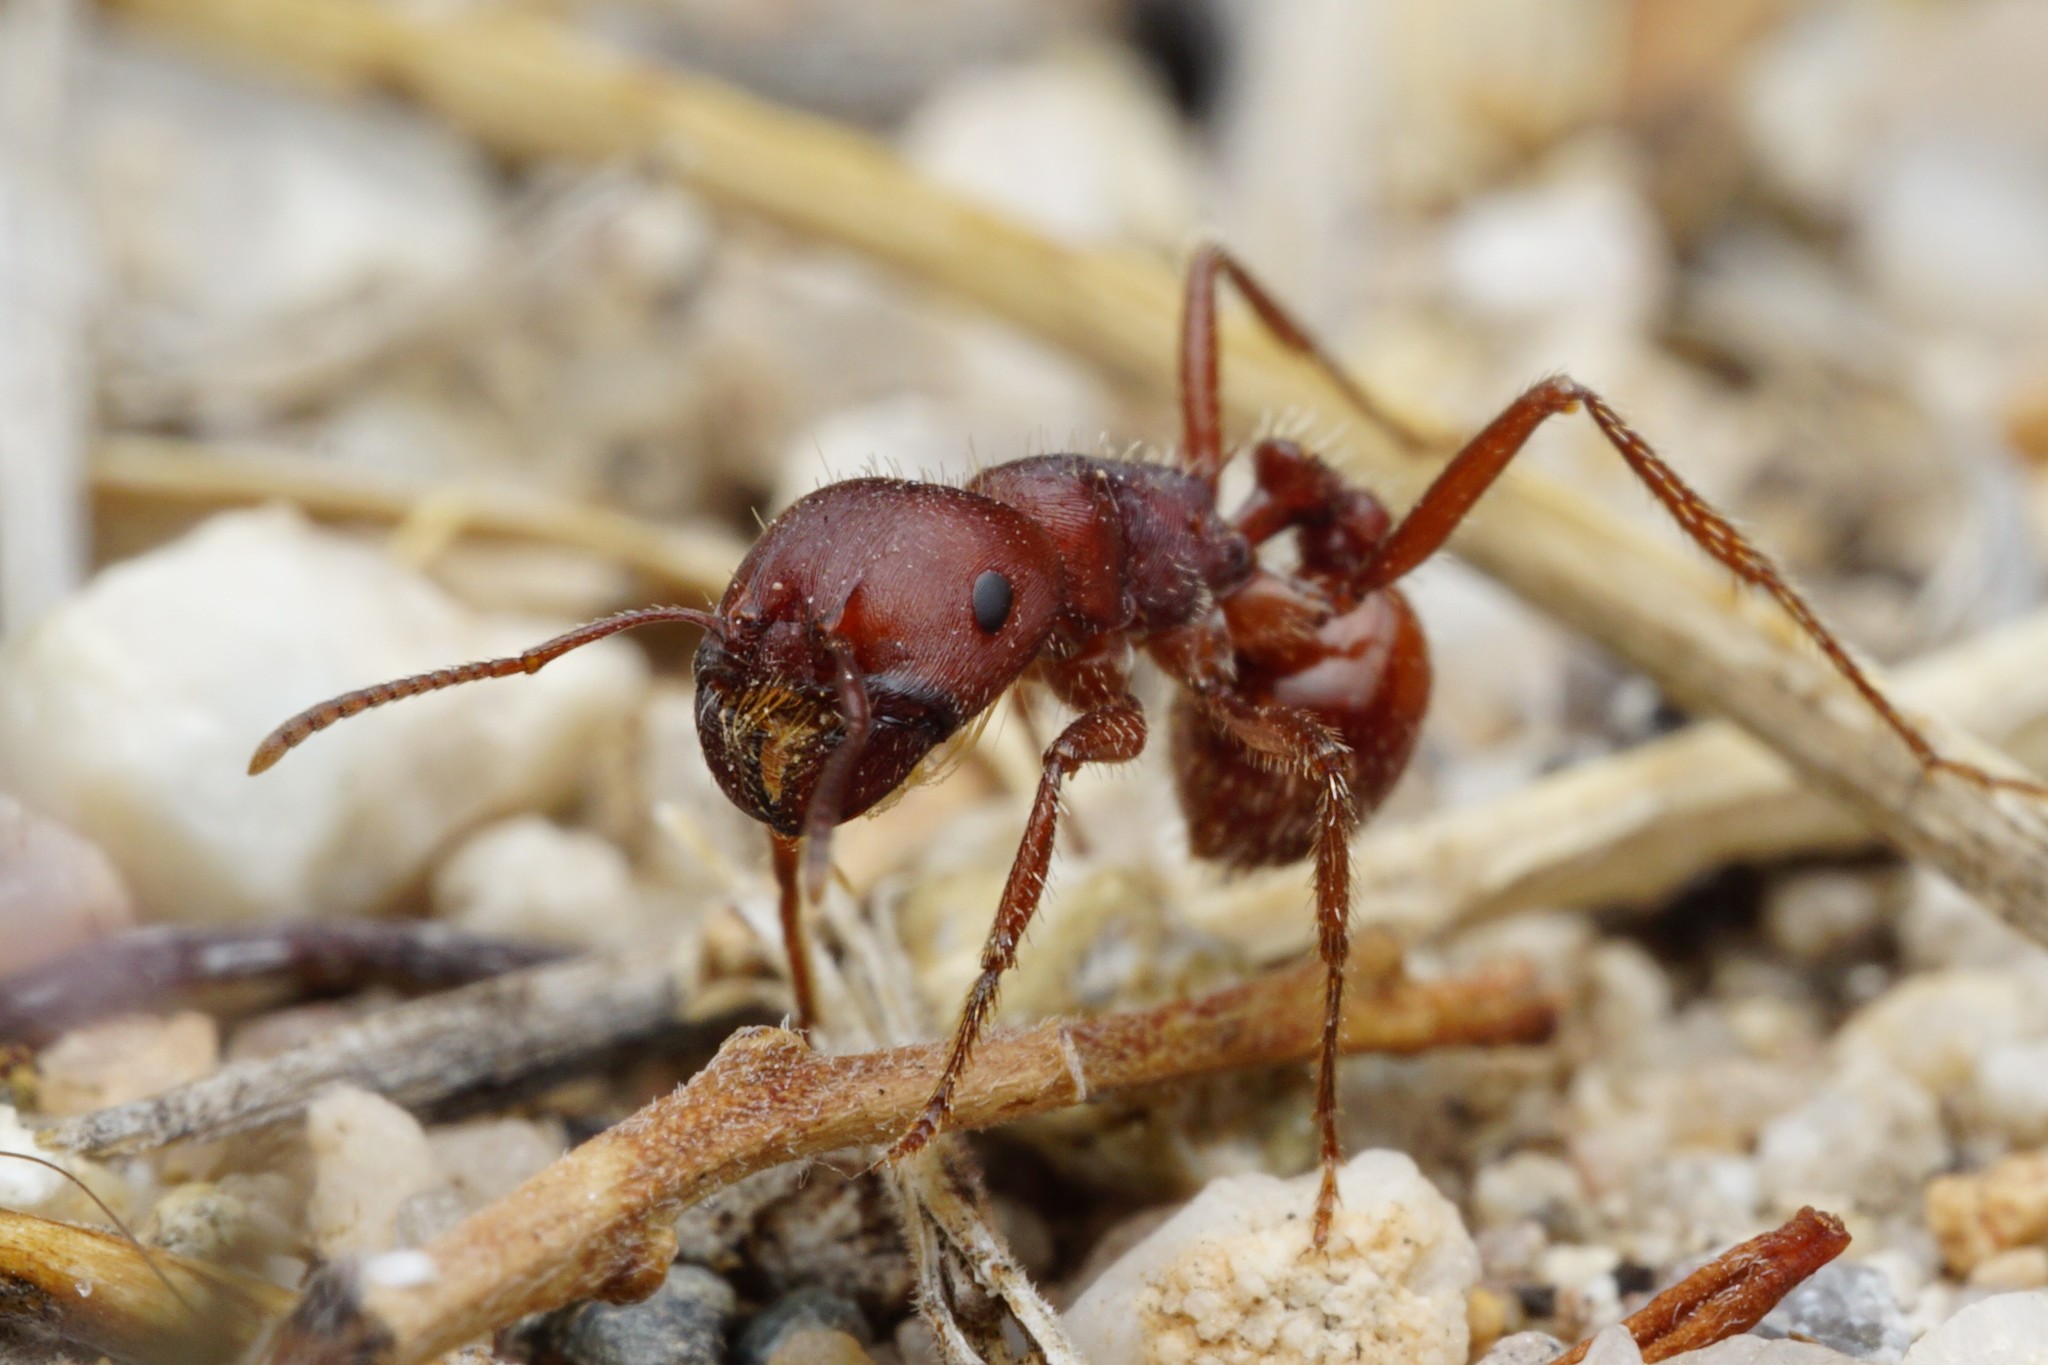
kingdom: Animalia
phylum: Arthropoda
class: Insecta
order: Hymenoptera
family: Formicidae
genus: Pogonomyrmex
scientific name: Pogonomyrmex barbatus
